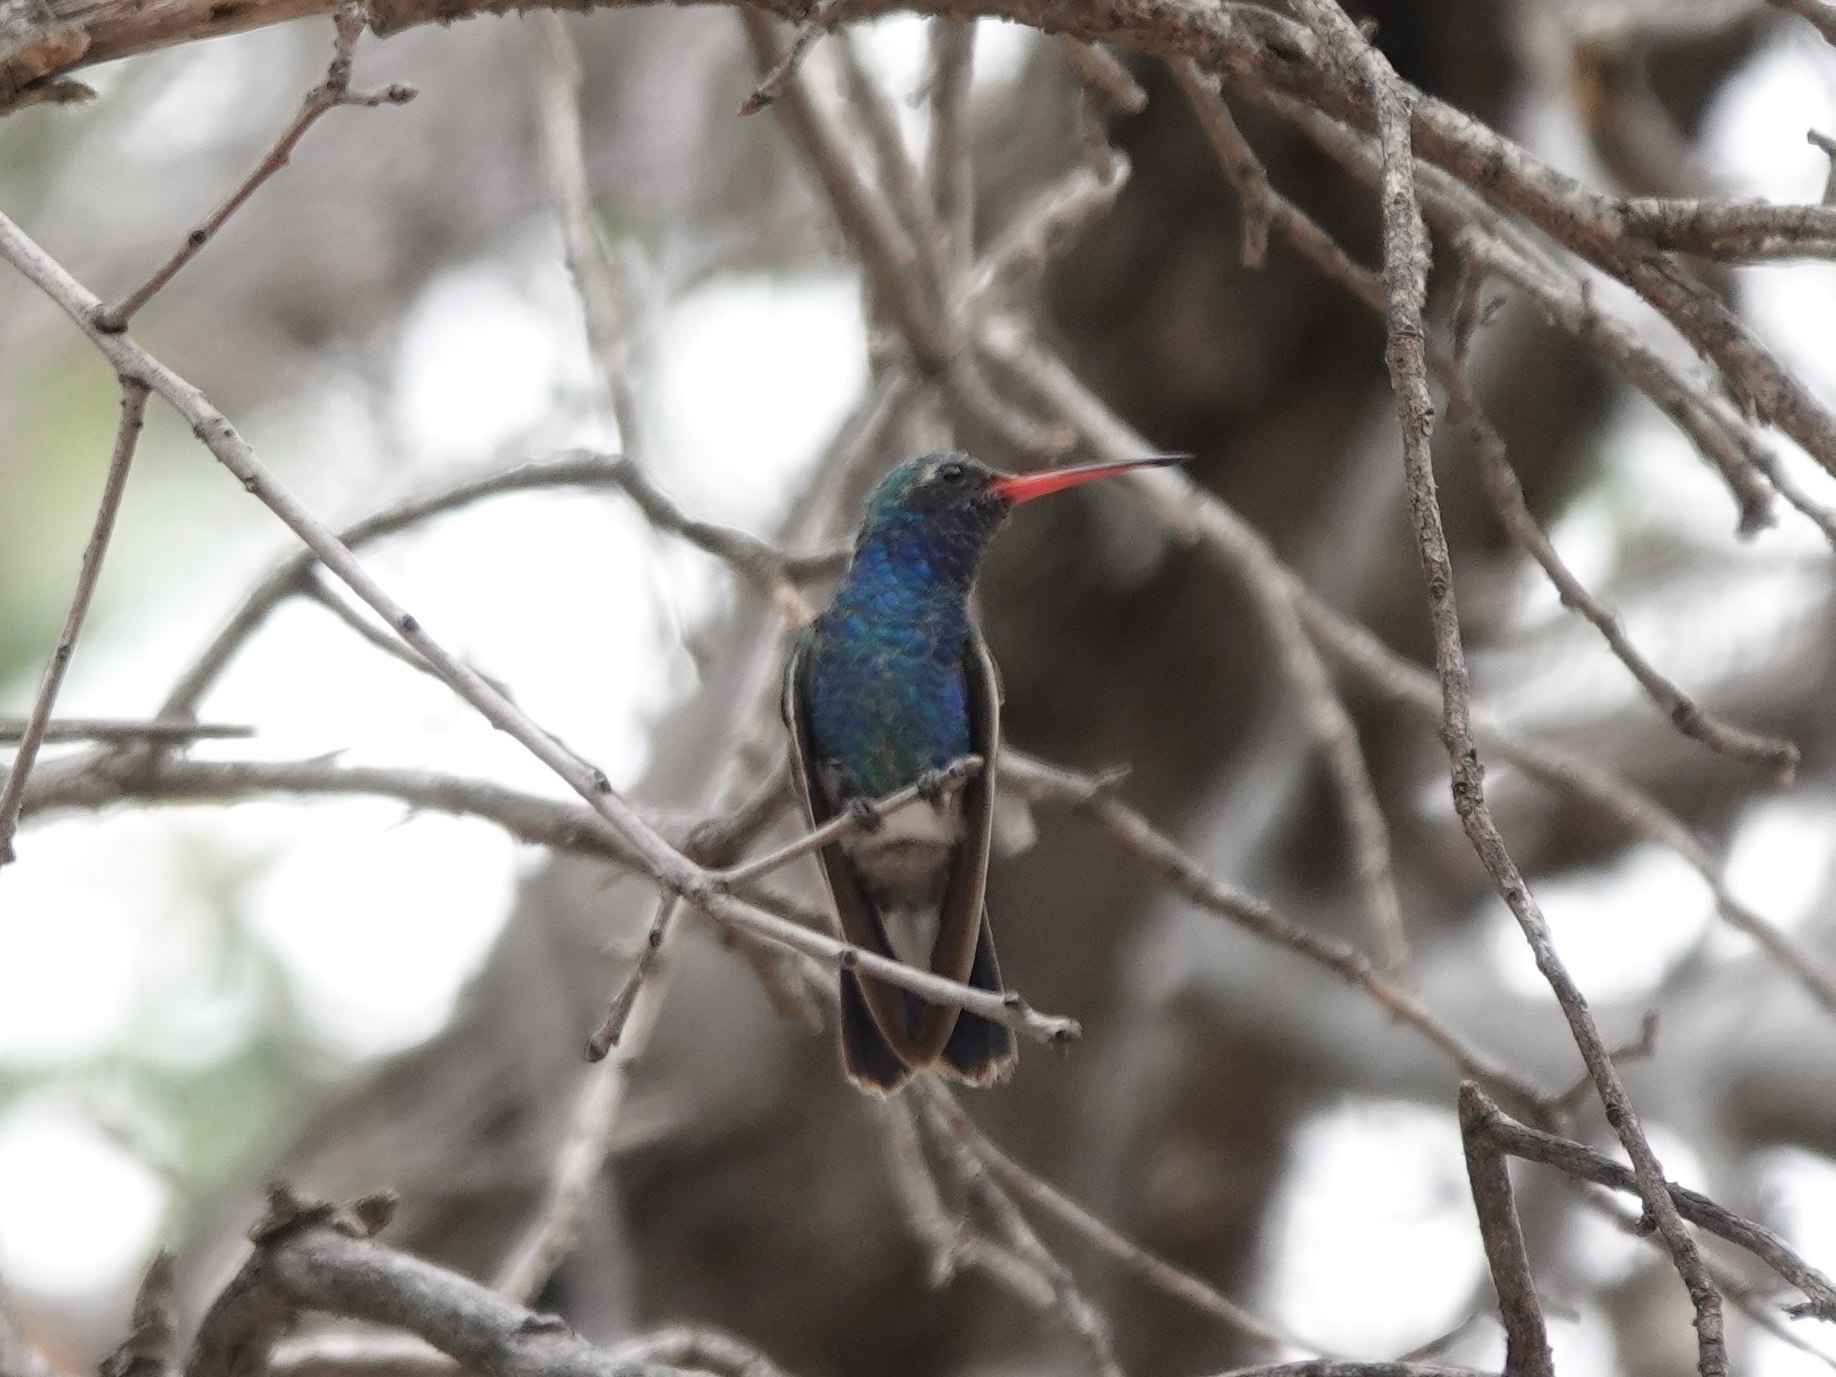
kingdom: Animalia
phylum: Chordata
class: Aves
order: Apodiformes
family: Trochilidae
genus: Cynanthus
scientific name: Cynanthus latirostris
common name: Broad-billed hummingbird
